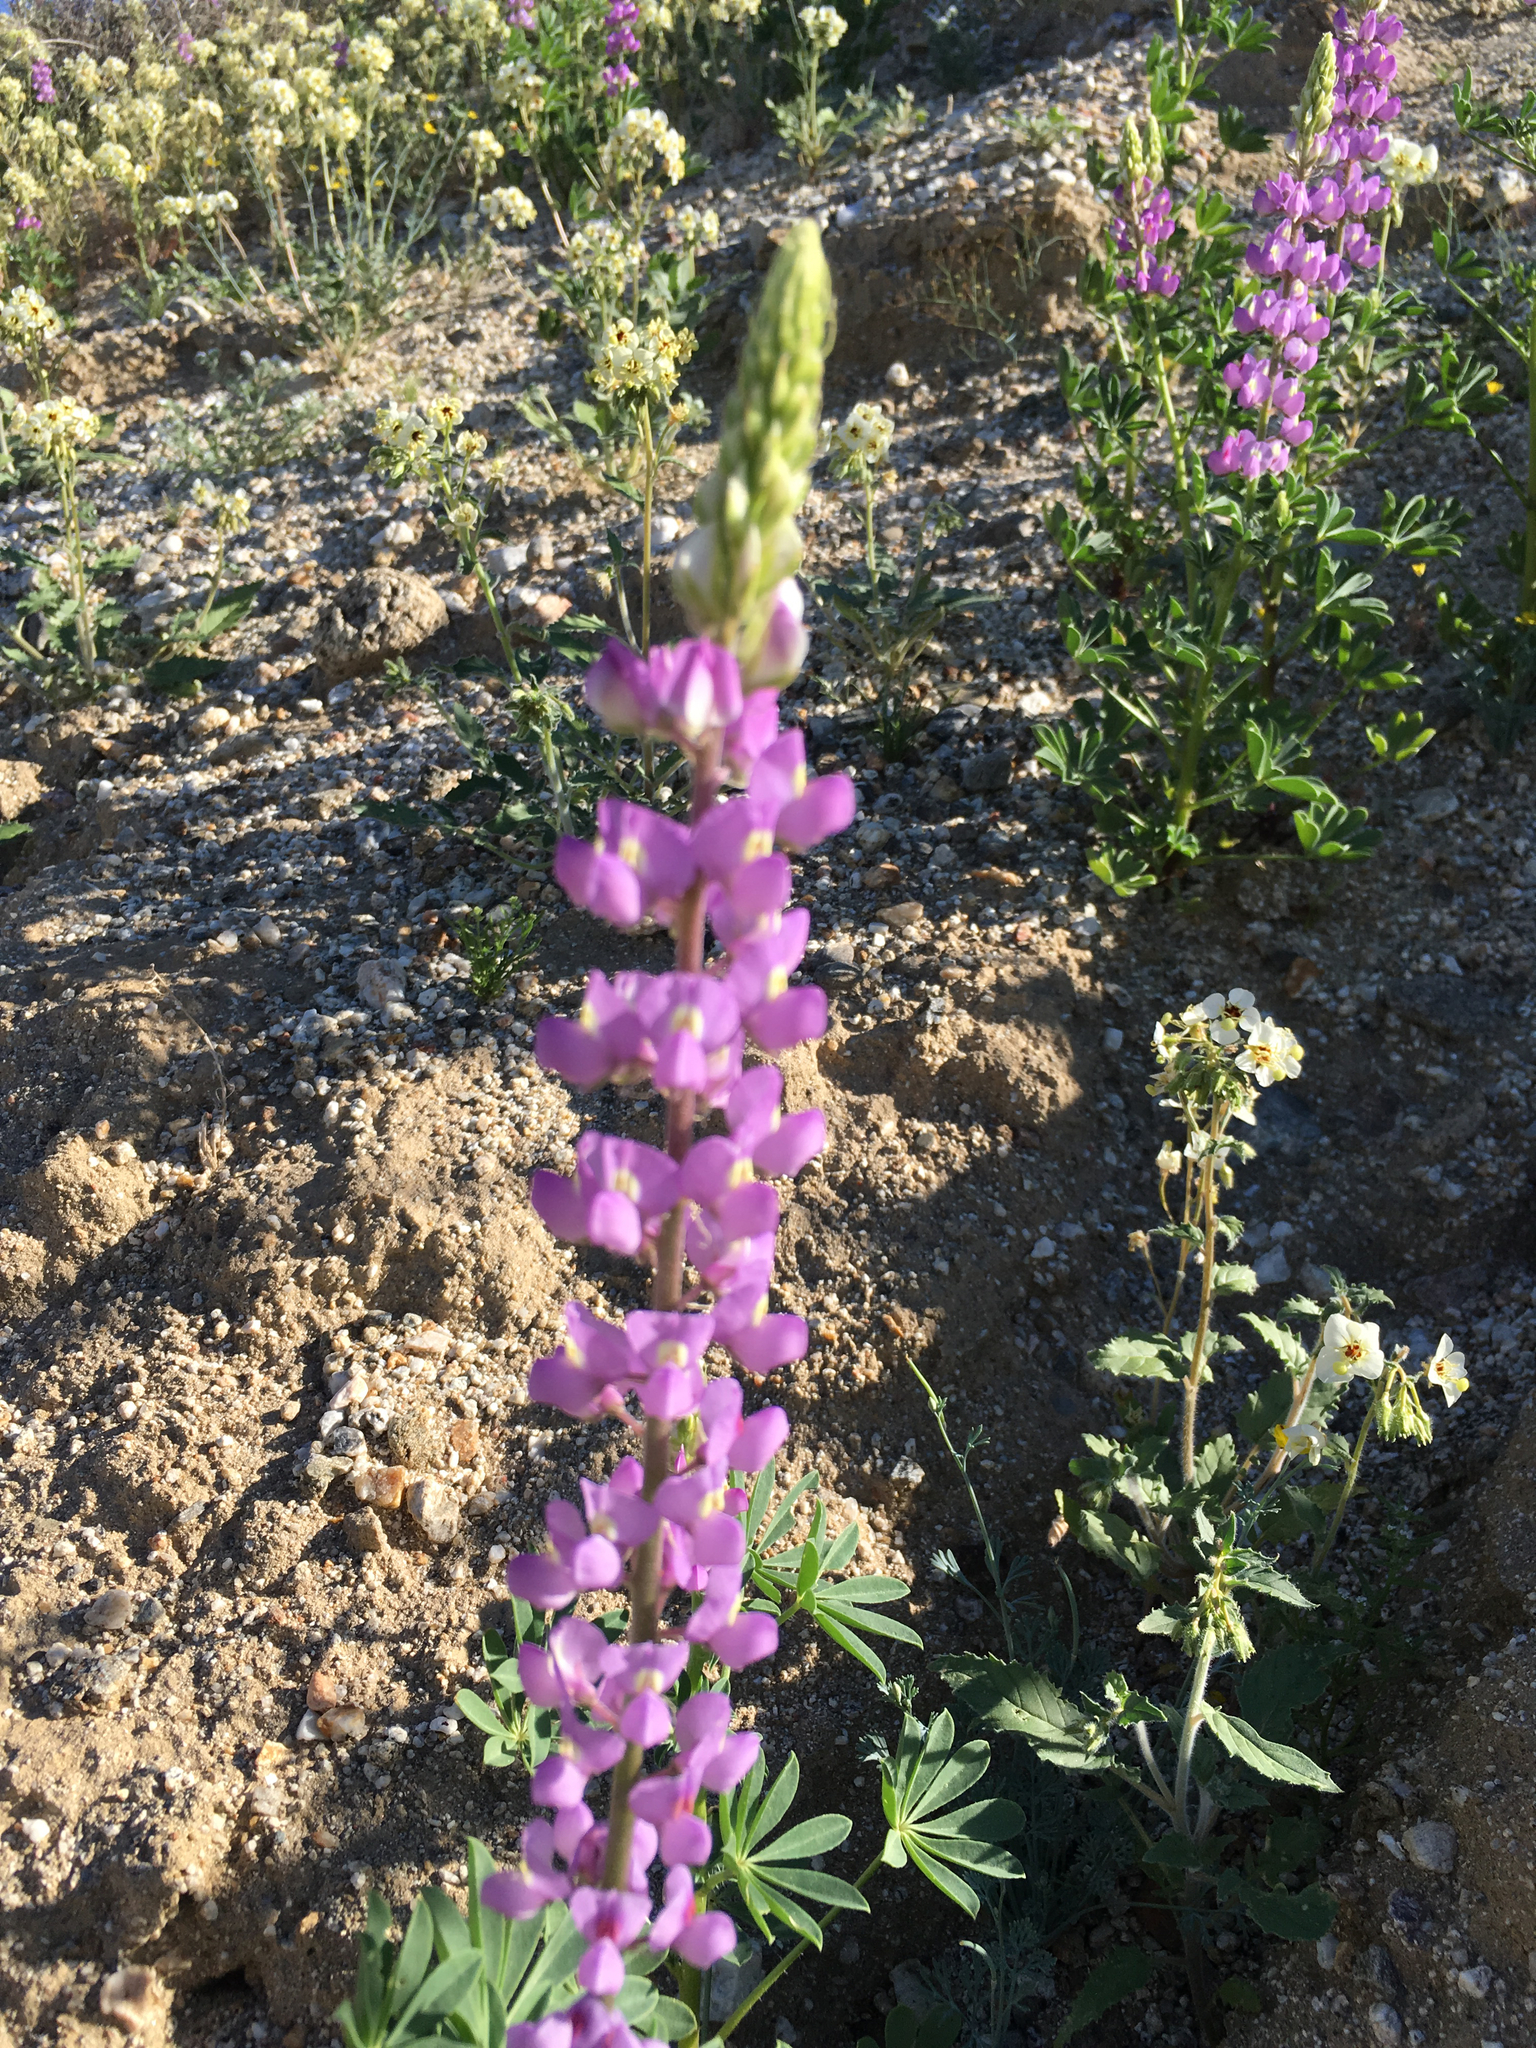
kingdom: Plantae
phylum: Tracheophyta
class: Magnoliopsida
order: Fabales
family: Fabaceae
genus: Lupinus
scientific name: Lupinus arizonicus
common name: Arizona lupine
